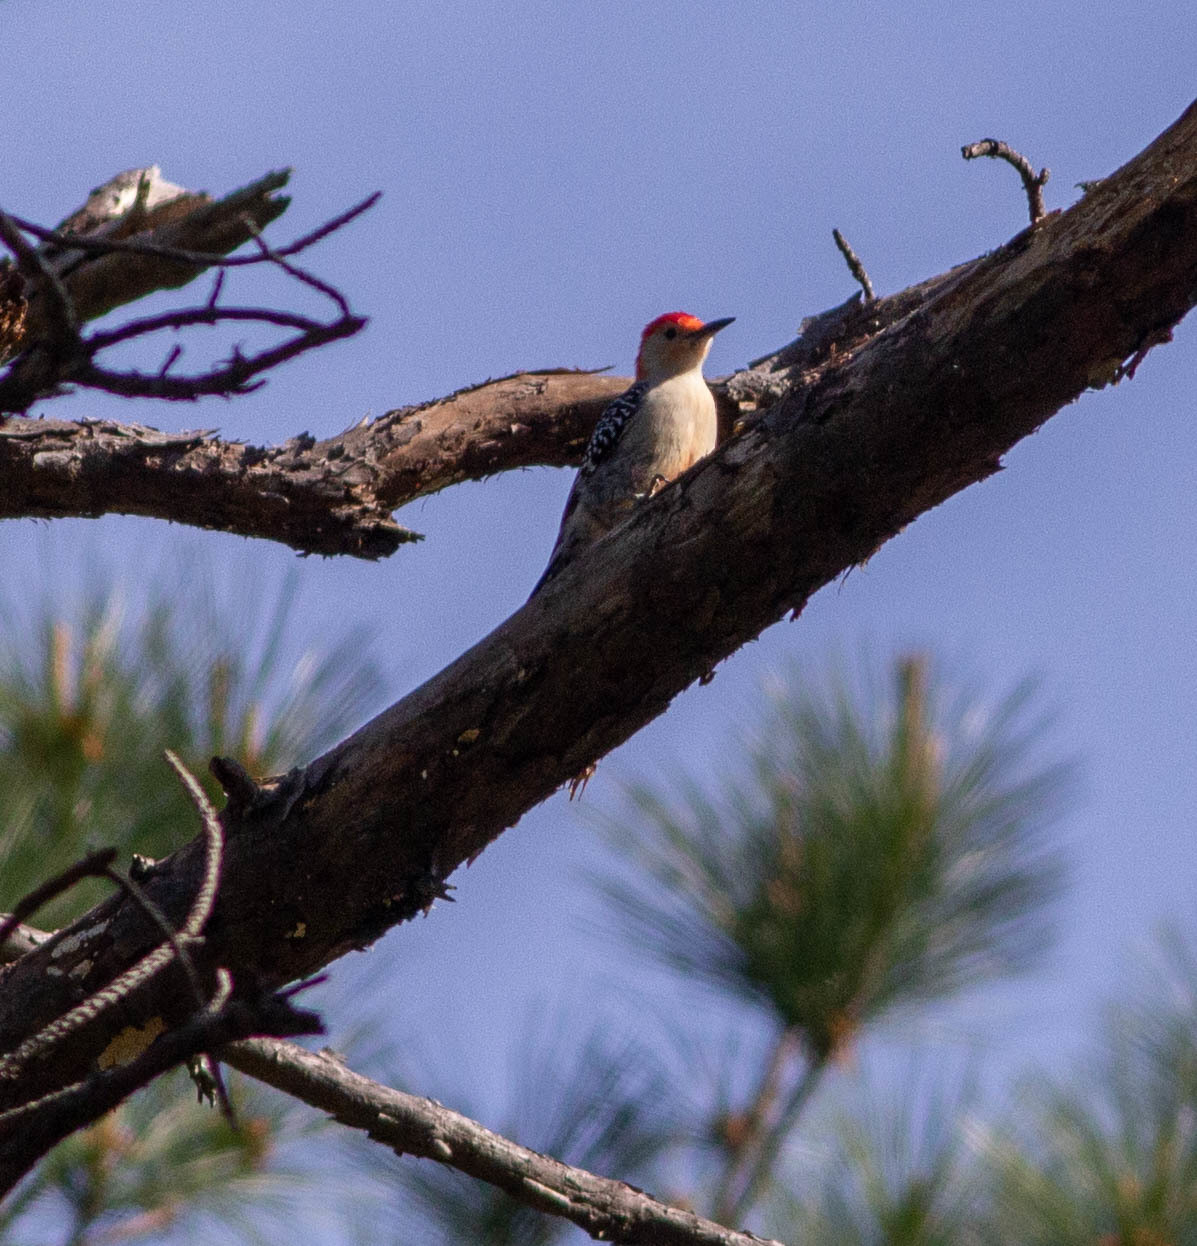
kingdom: Animalia
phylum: Chordata
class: Aves
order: Piciformes
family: Picidae
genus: Melanerpes
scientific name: Melanerpes carolinus
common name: Red-bellied woodpecker
